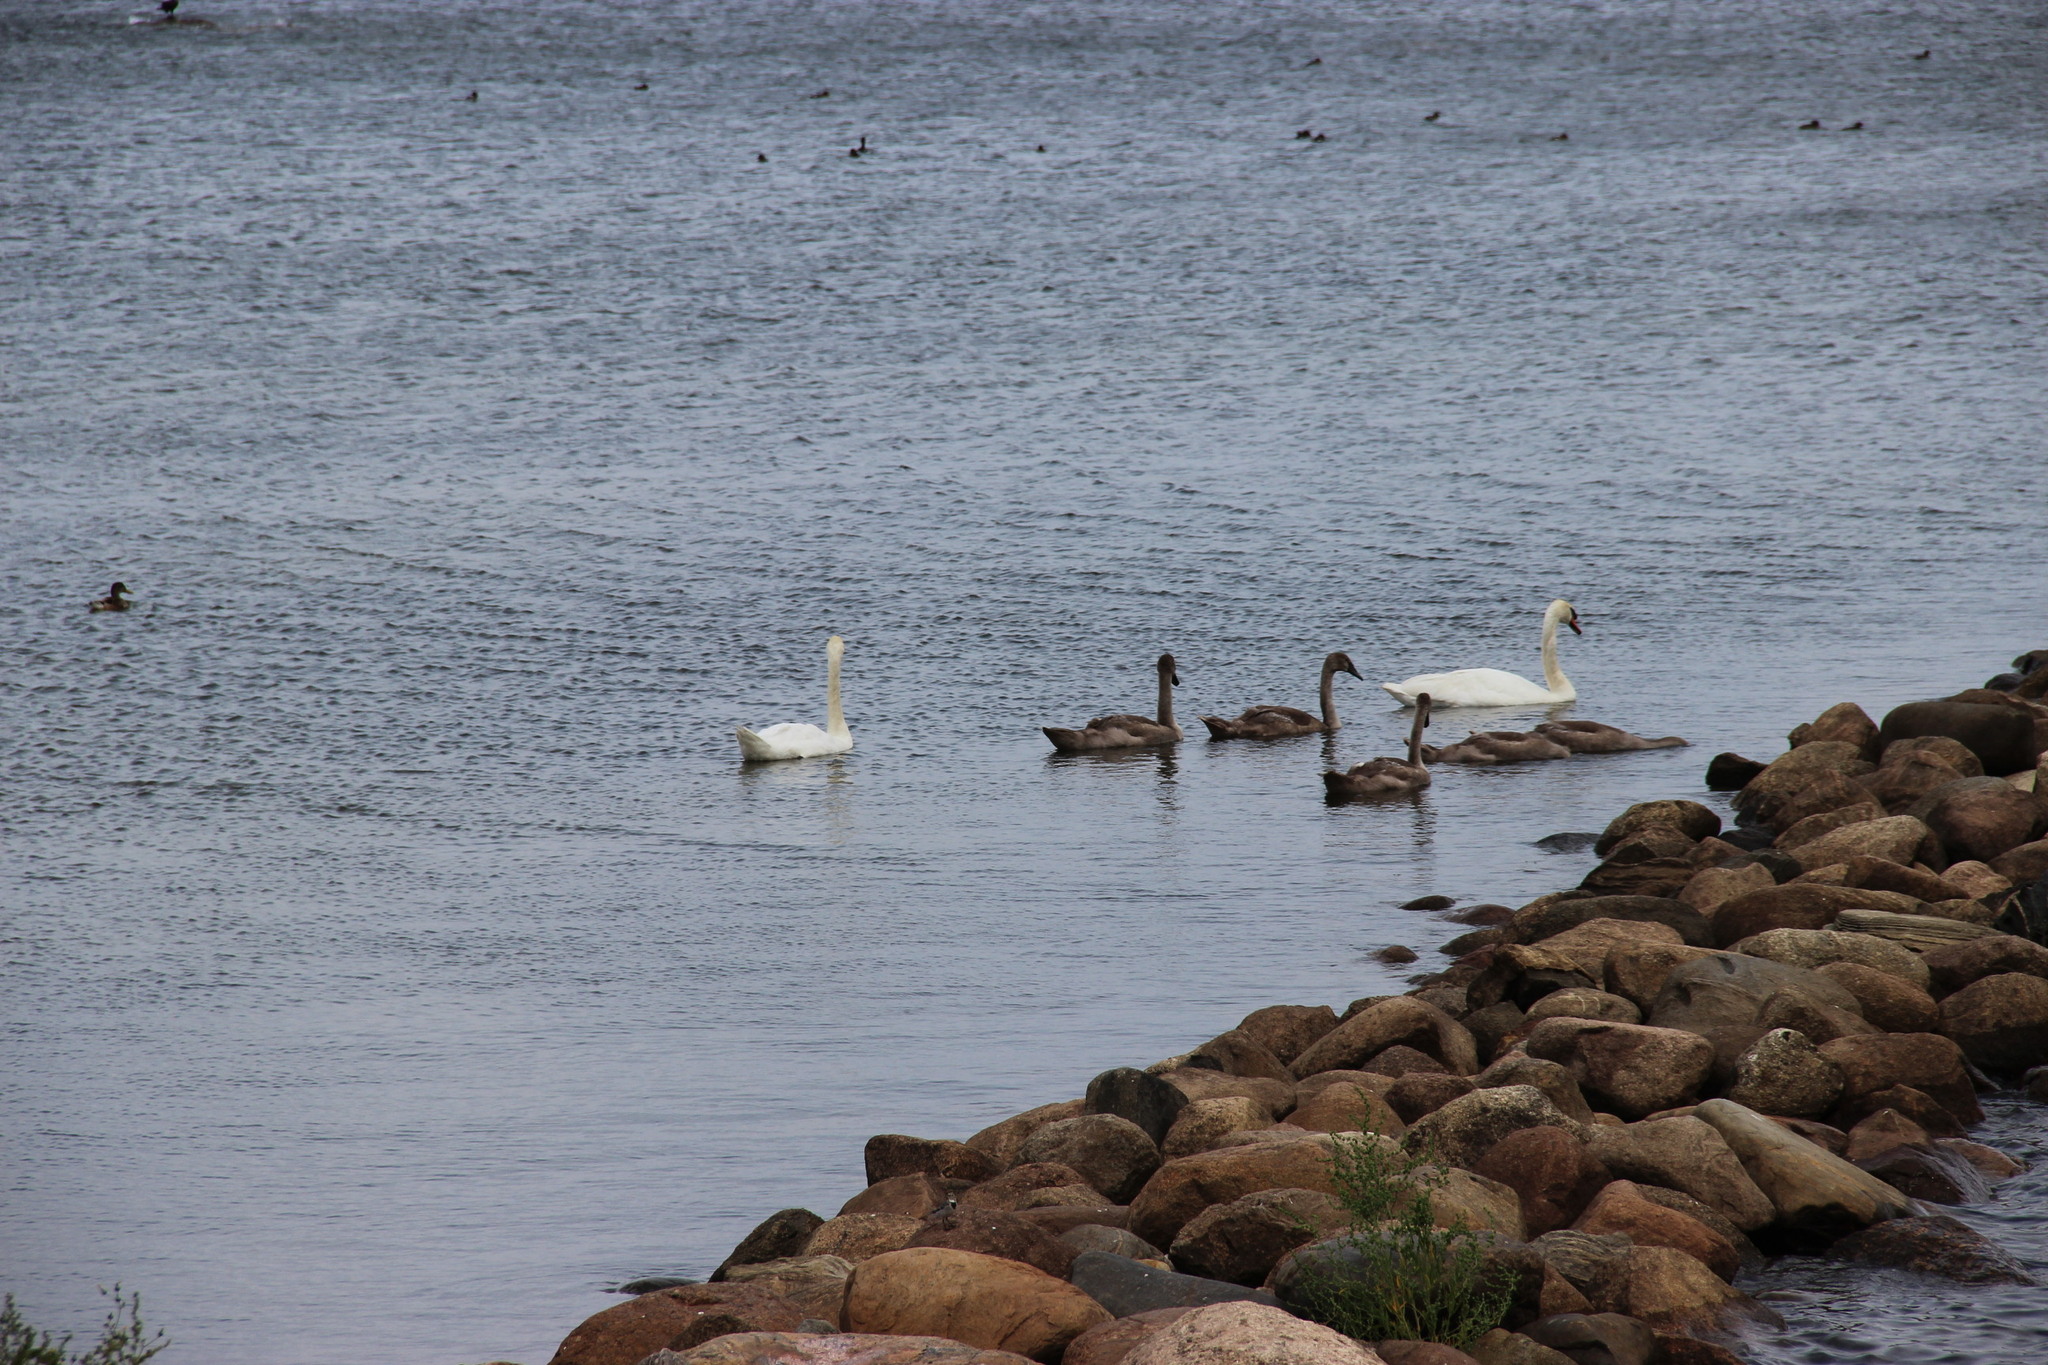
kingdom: Animalia
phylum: Chordata
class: Aves
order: Anseriformes
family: Anatidae
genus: Cygnus
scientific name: Cygnus cygnus
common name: Whooper swan
